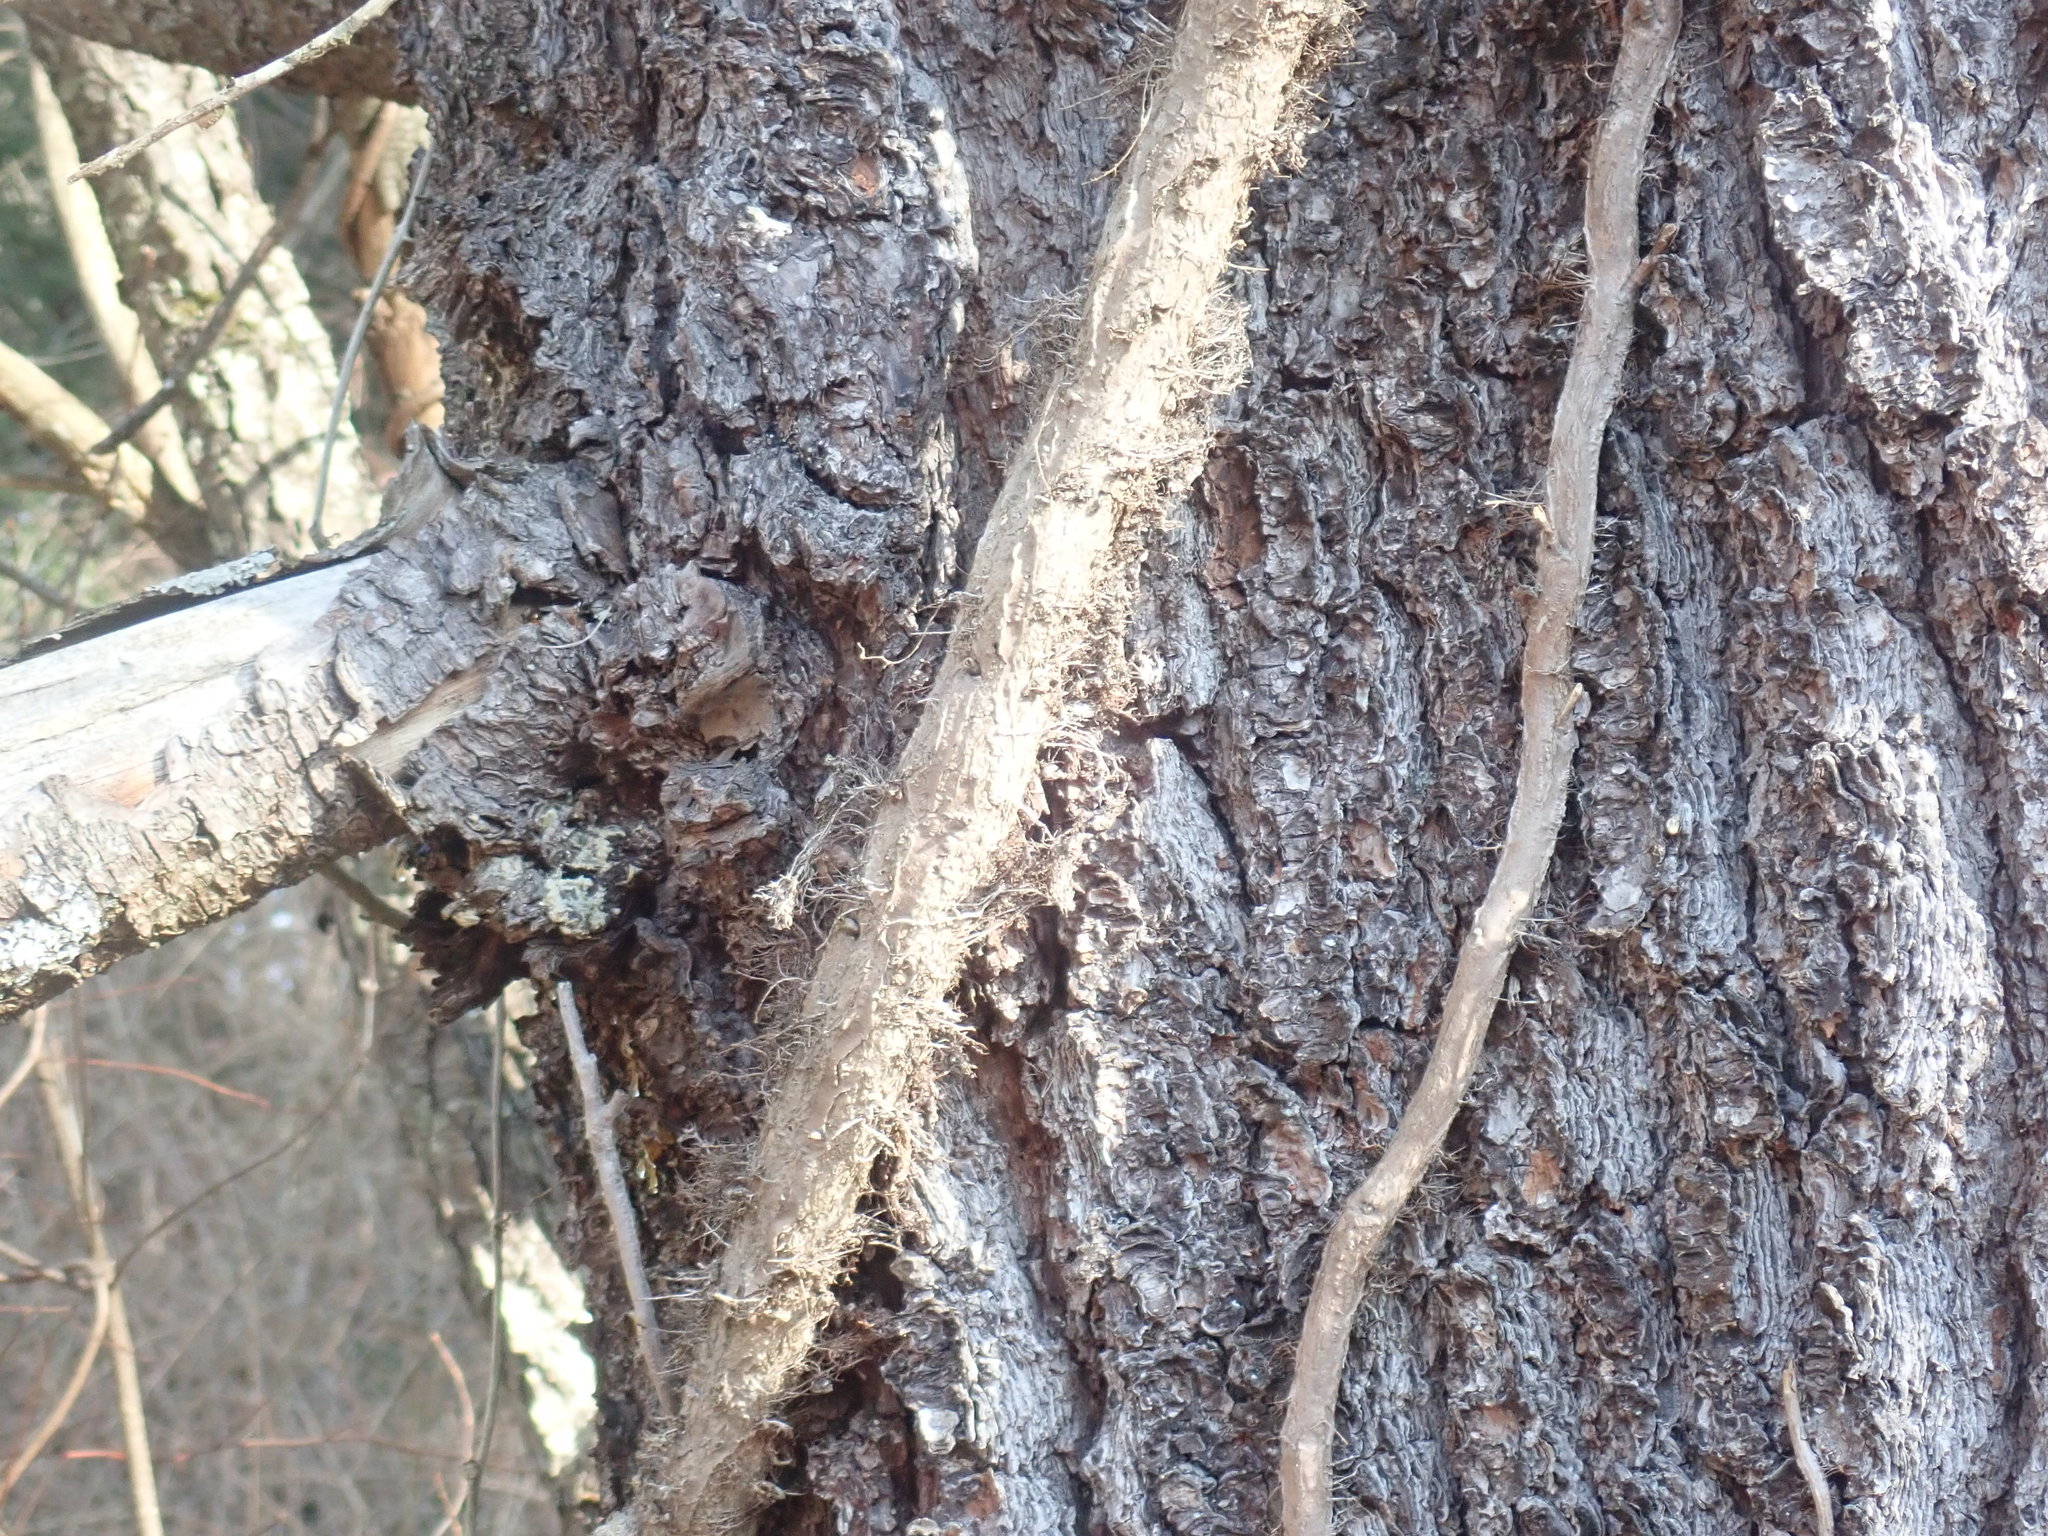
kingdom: Plantae
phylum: Tracheophyta
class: Magnoliopsida
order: Sapindales
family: Anacardiaceae
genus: Toxicodendron
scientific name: Toxicodendron radicans
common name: Poison ivy
